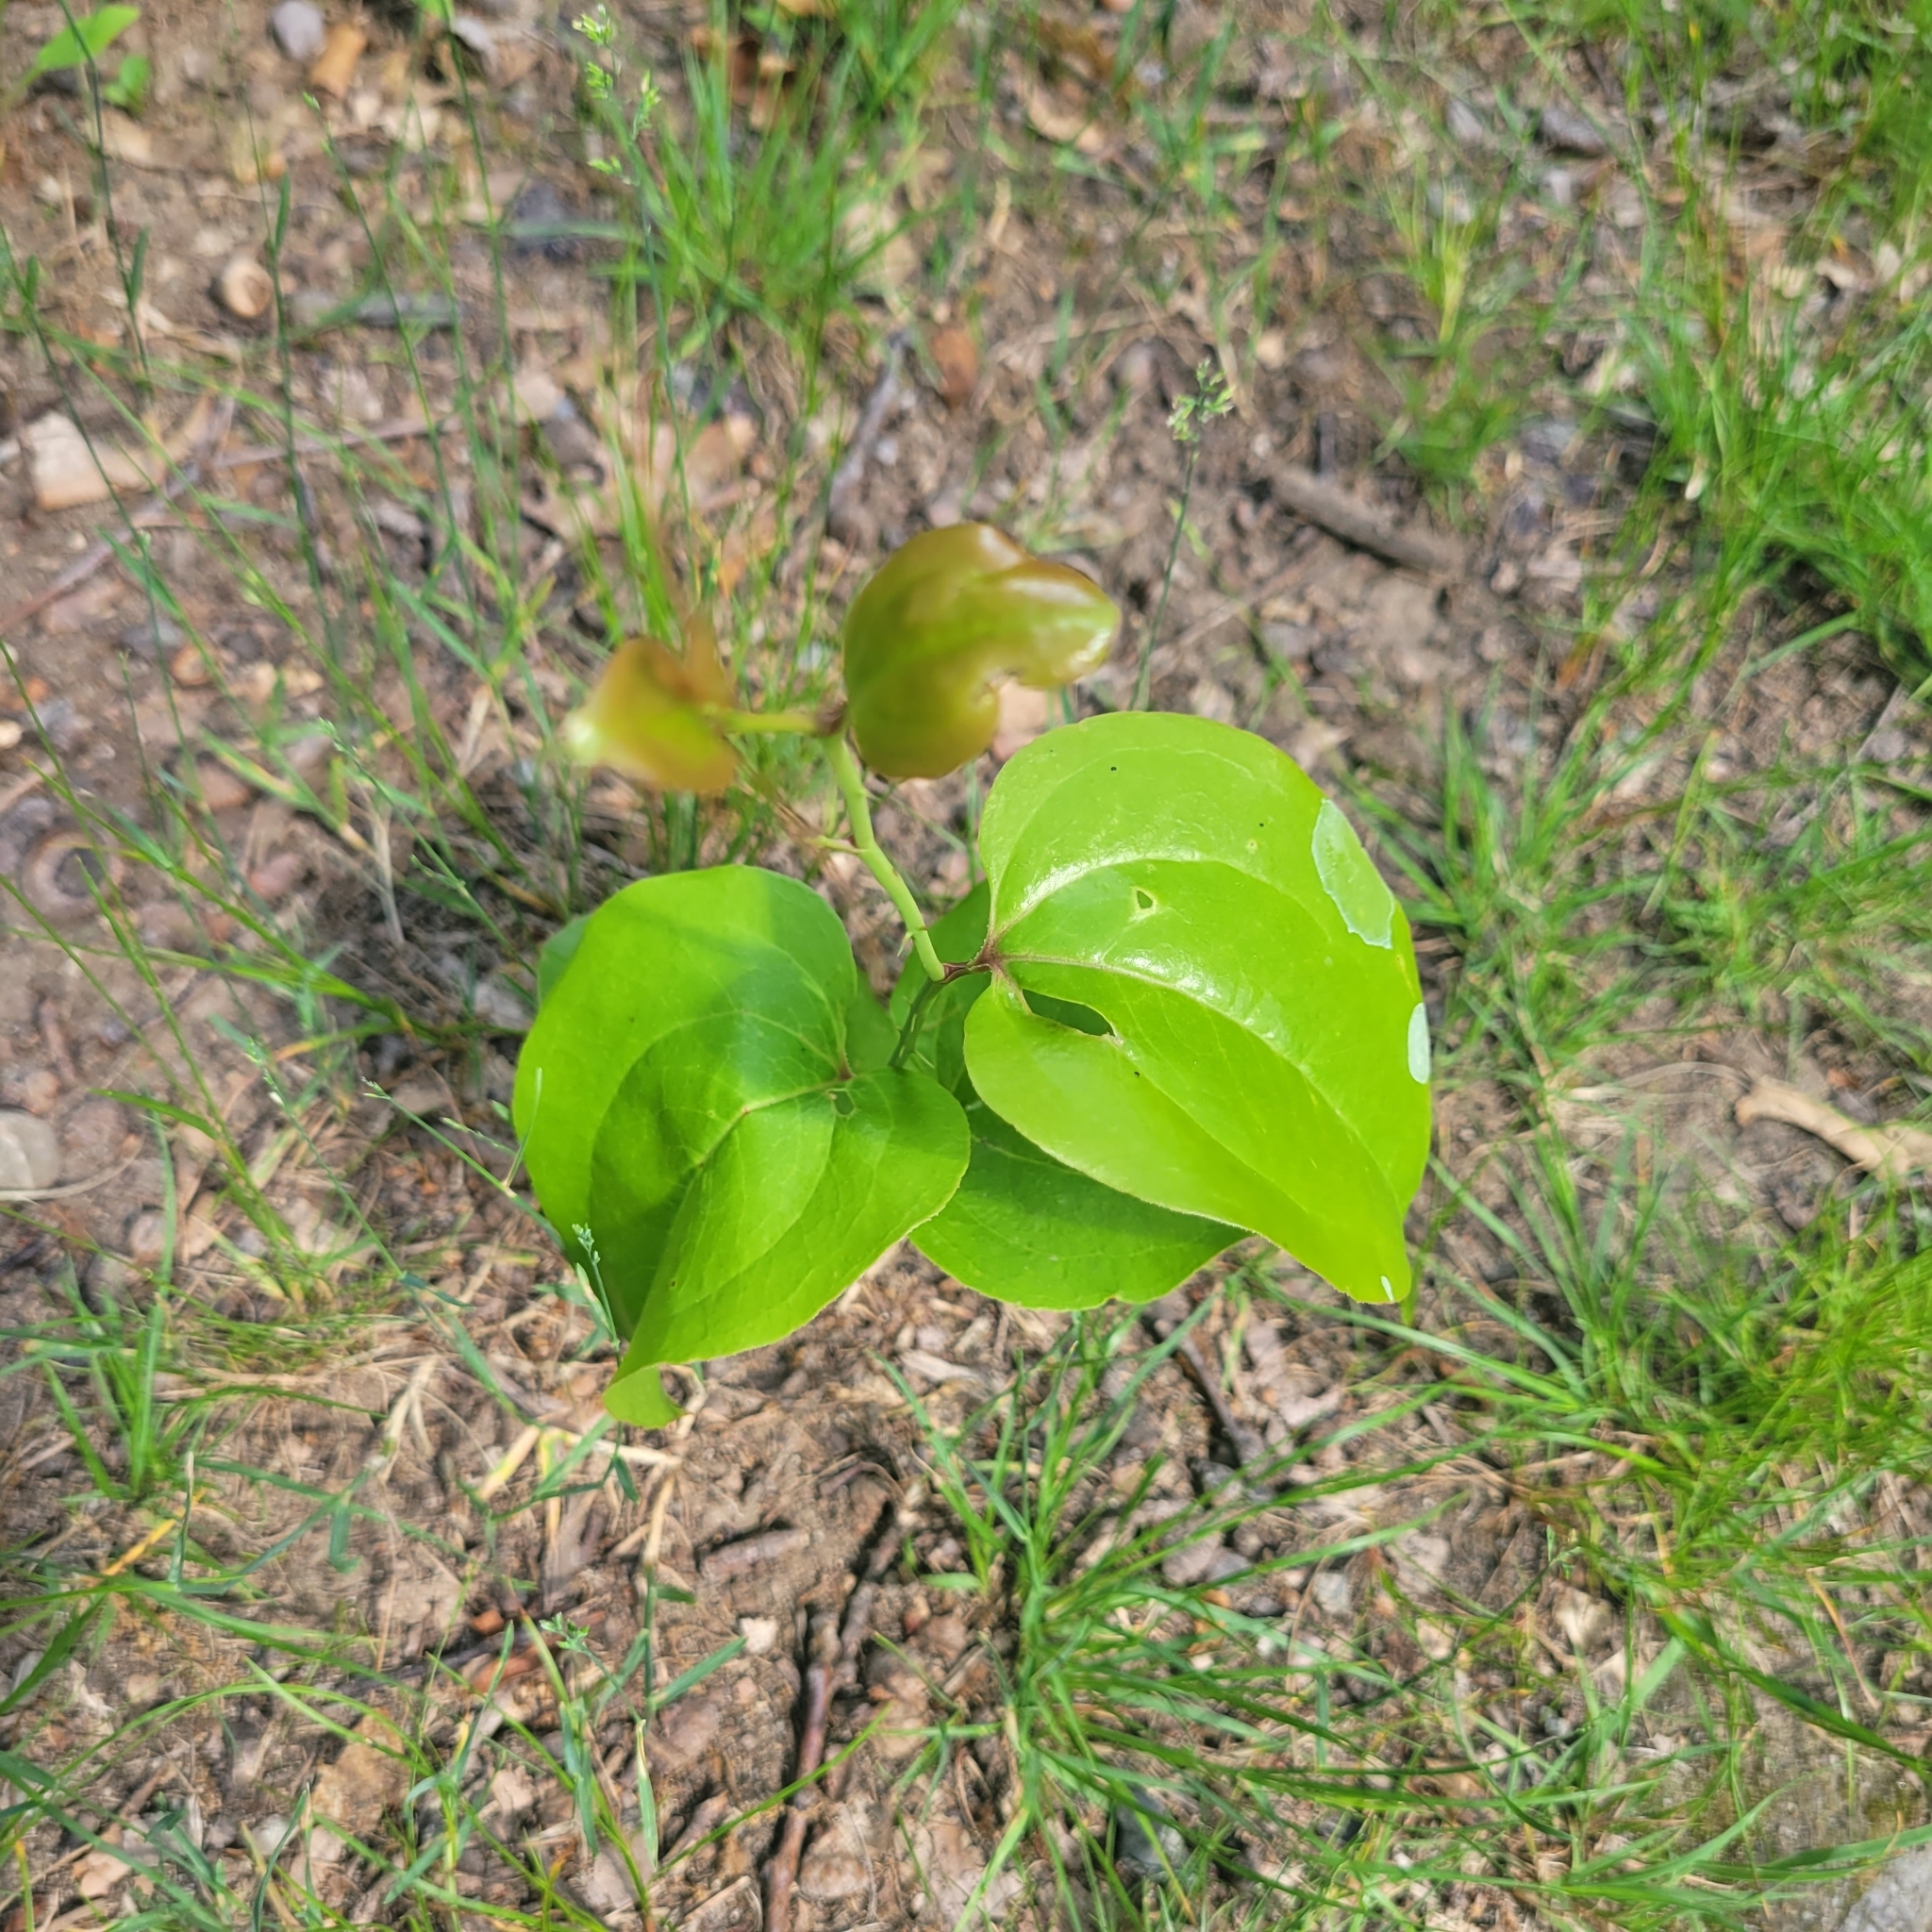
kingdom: Plantae
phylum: Tracheophyta
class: Liliopsida
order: Liliales
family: Smilacaceae
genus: Smilax
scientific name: Smilax rotundifolia
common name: Bullbriar
